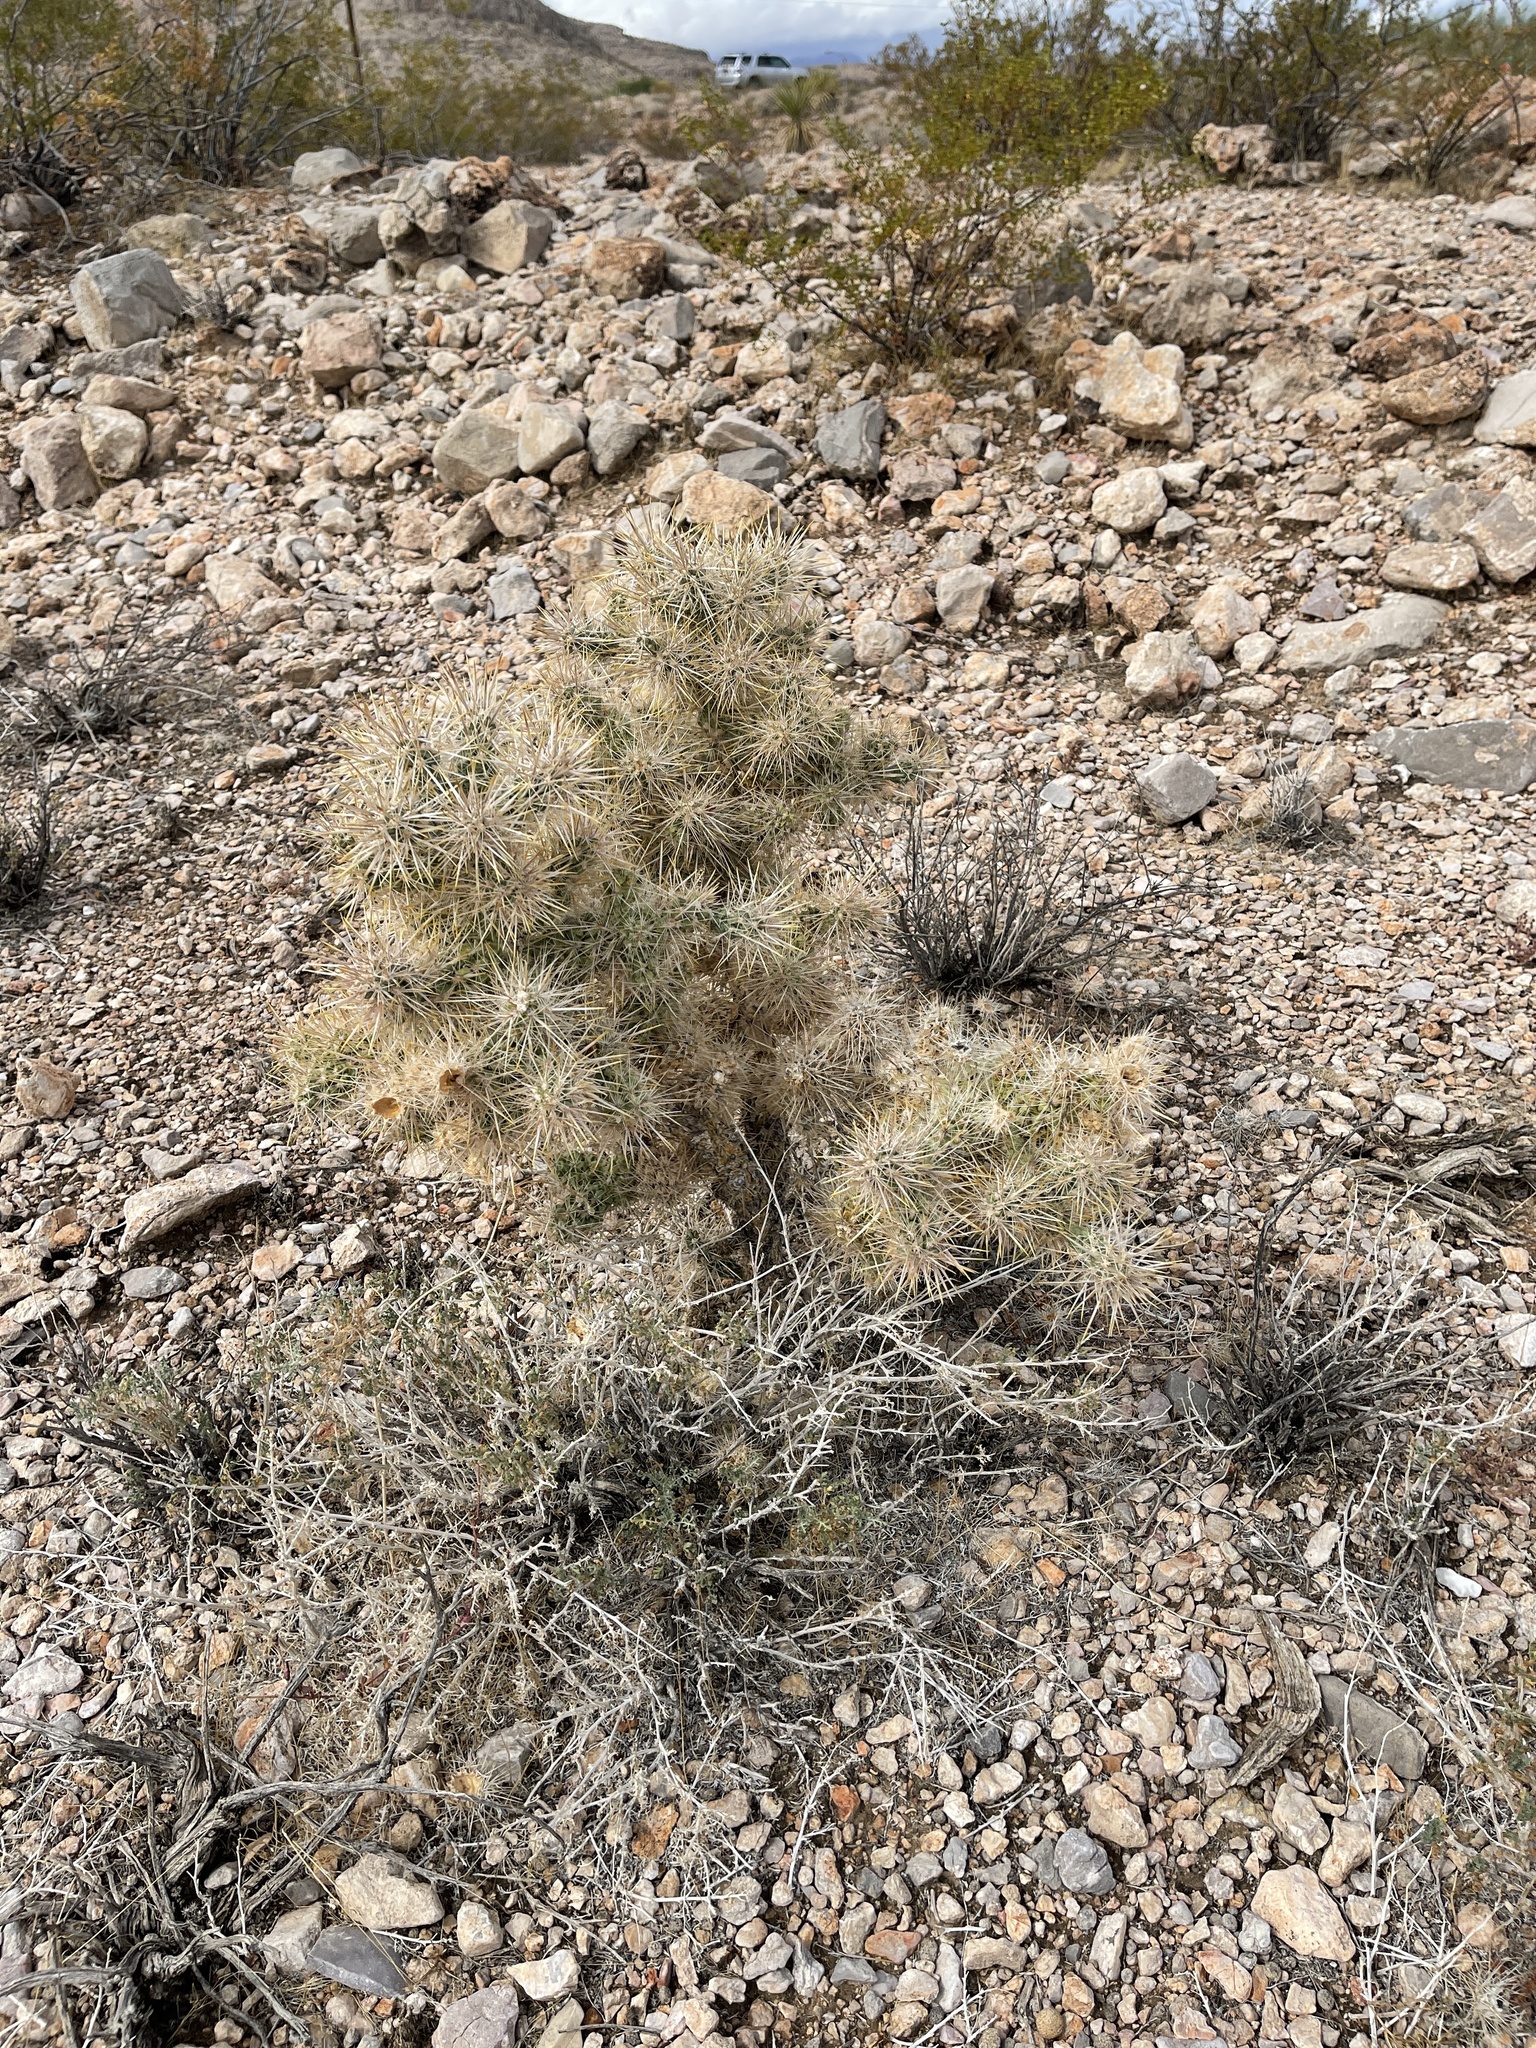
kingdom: Plantae
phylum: Tracheophyta
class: Magnoliopsida
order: Caryophyllales
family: Cactaceae
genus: Cylindropuntia
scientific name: Cylindropuntia echinocarpa
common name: Ground cholla
